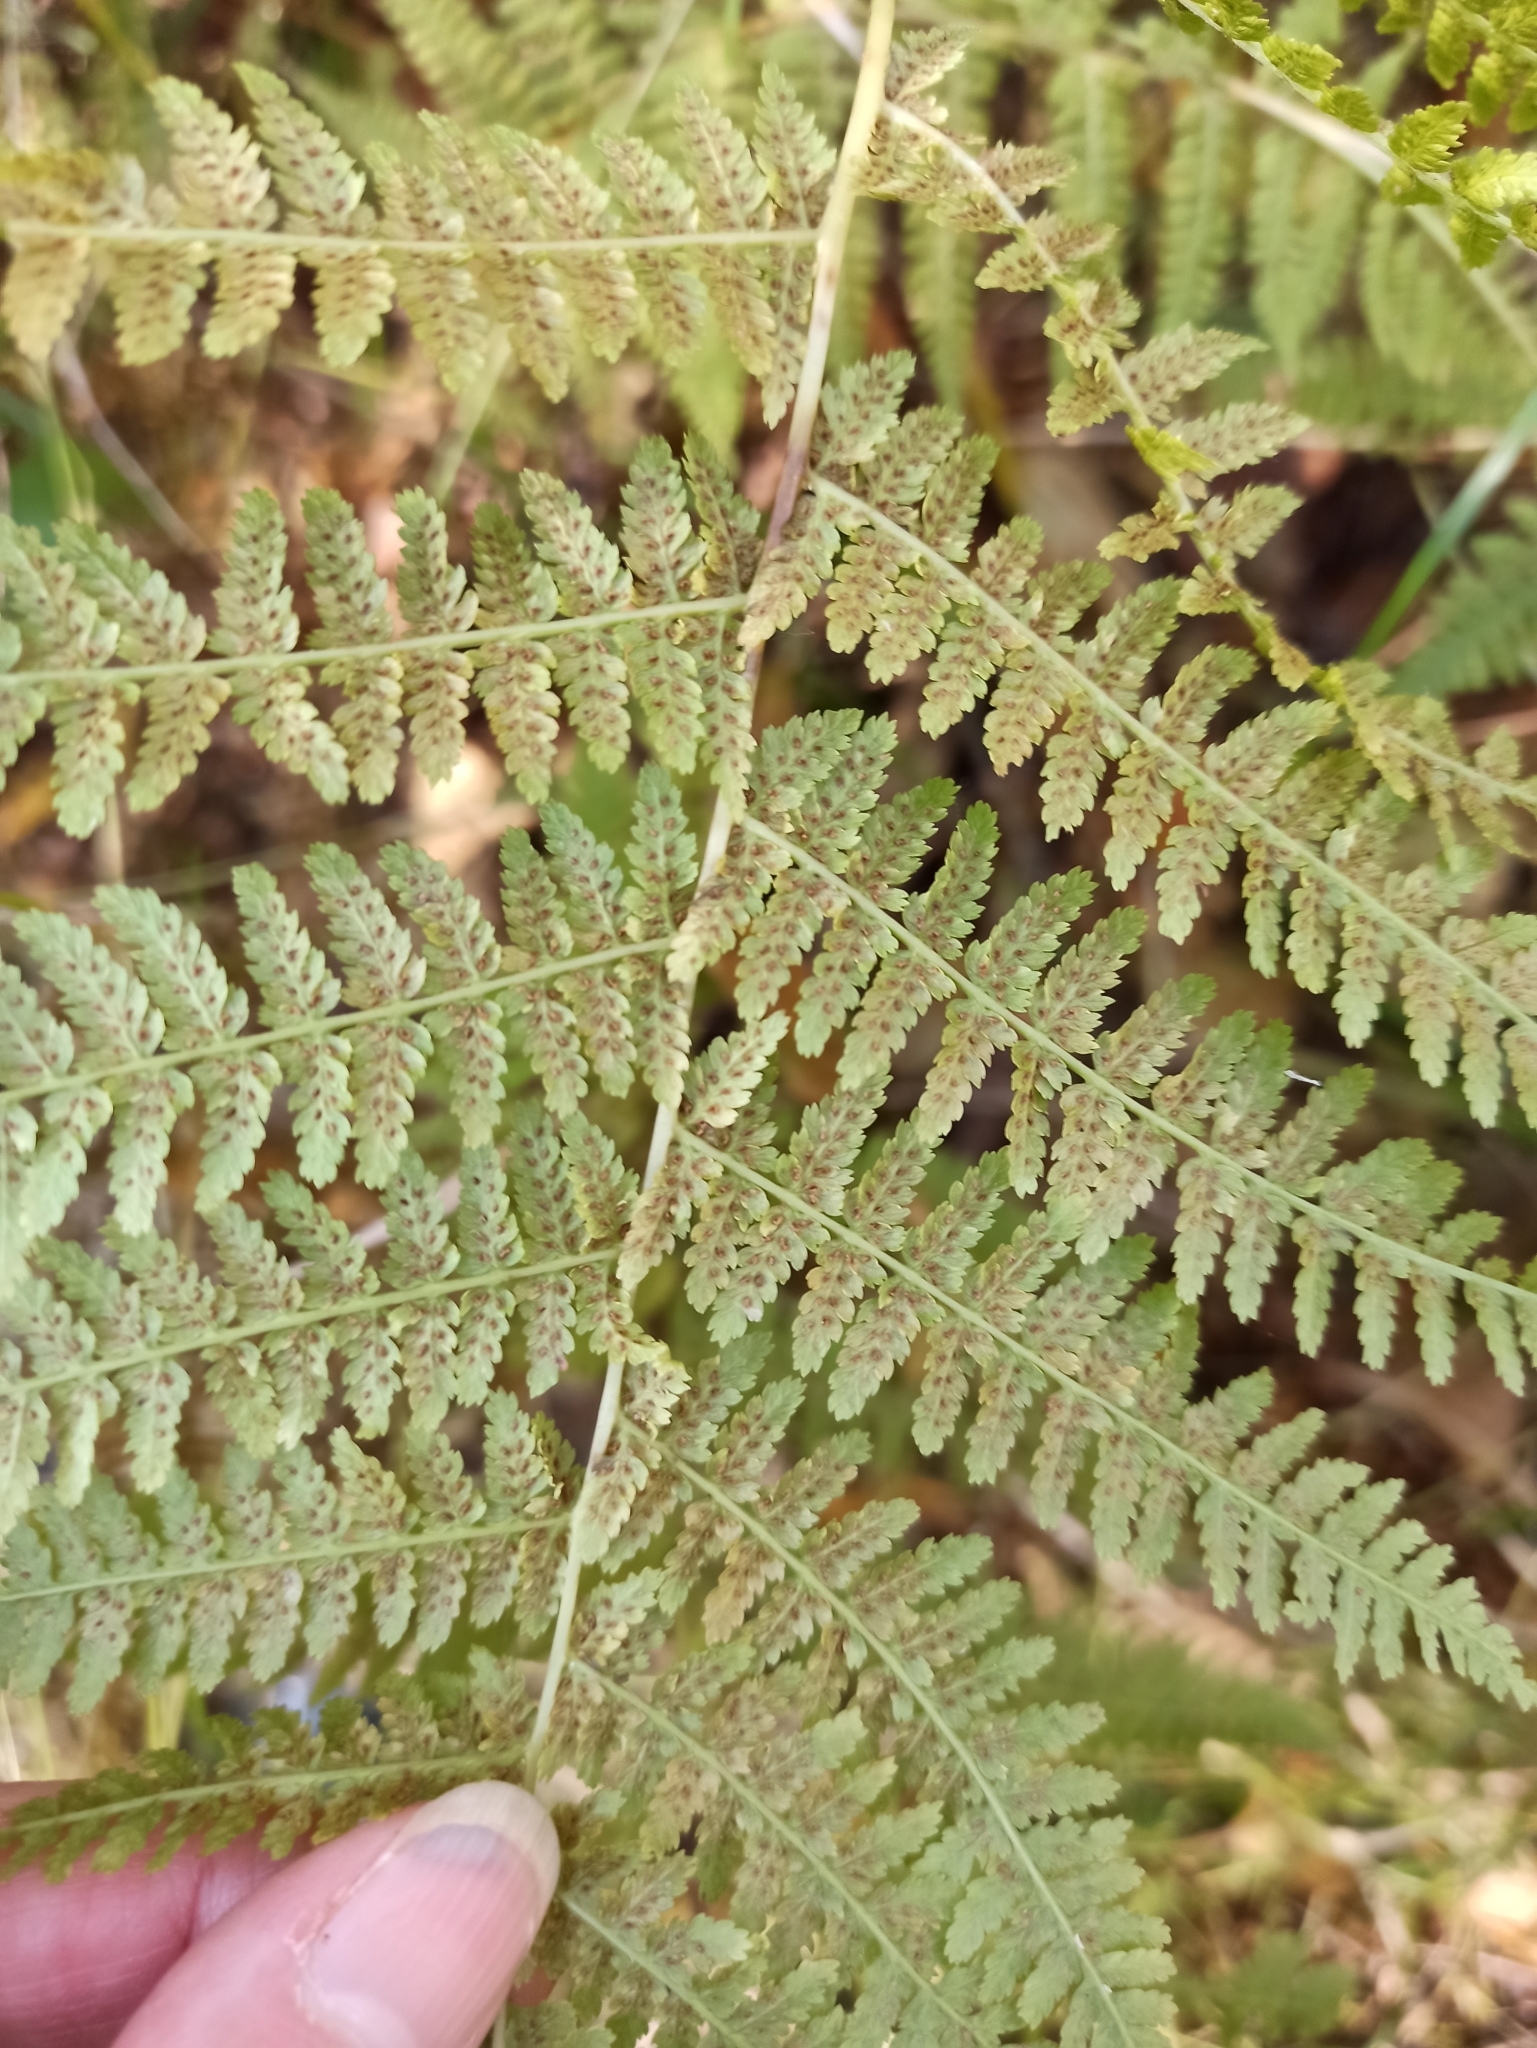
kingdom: Plantae
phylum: Tracheophyta
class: Polypodiopsida
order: Polypodiales
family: Athyriaceae
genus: Athyrium
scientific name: Athyrium filix-femina
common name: Lady fern
